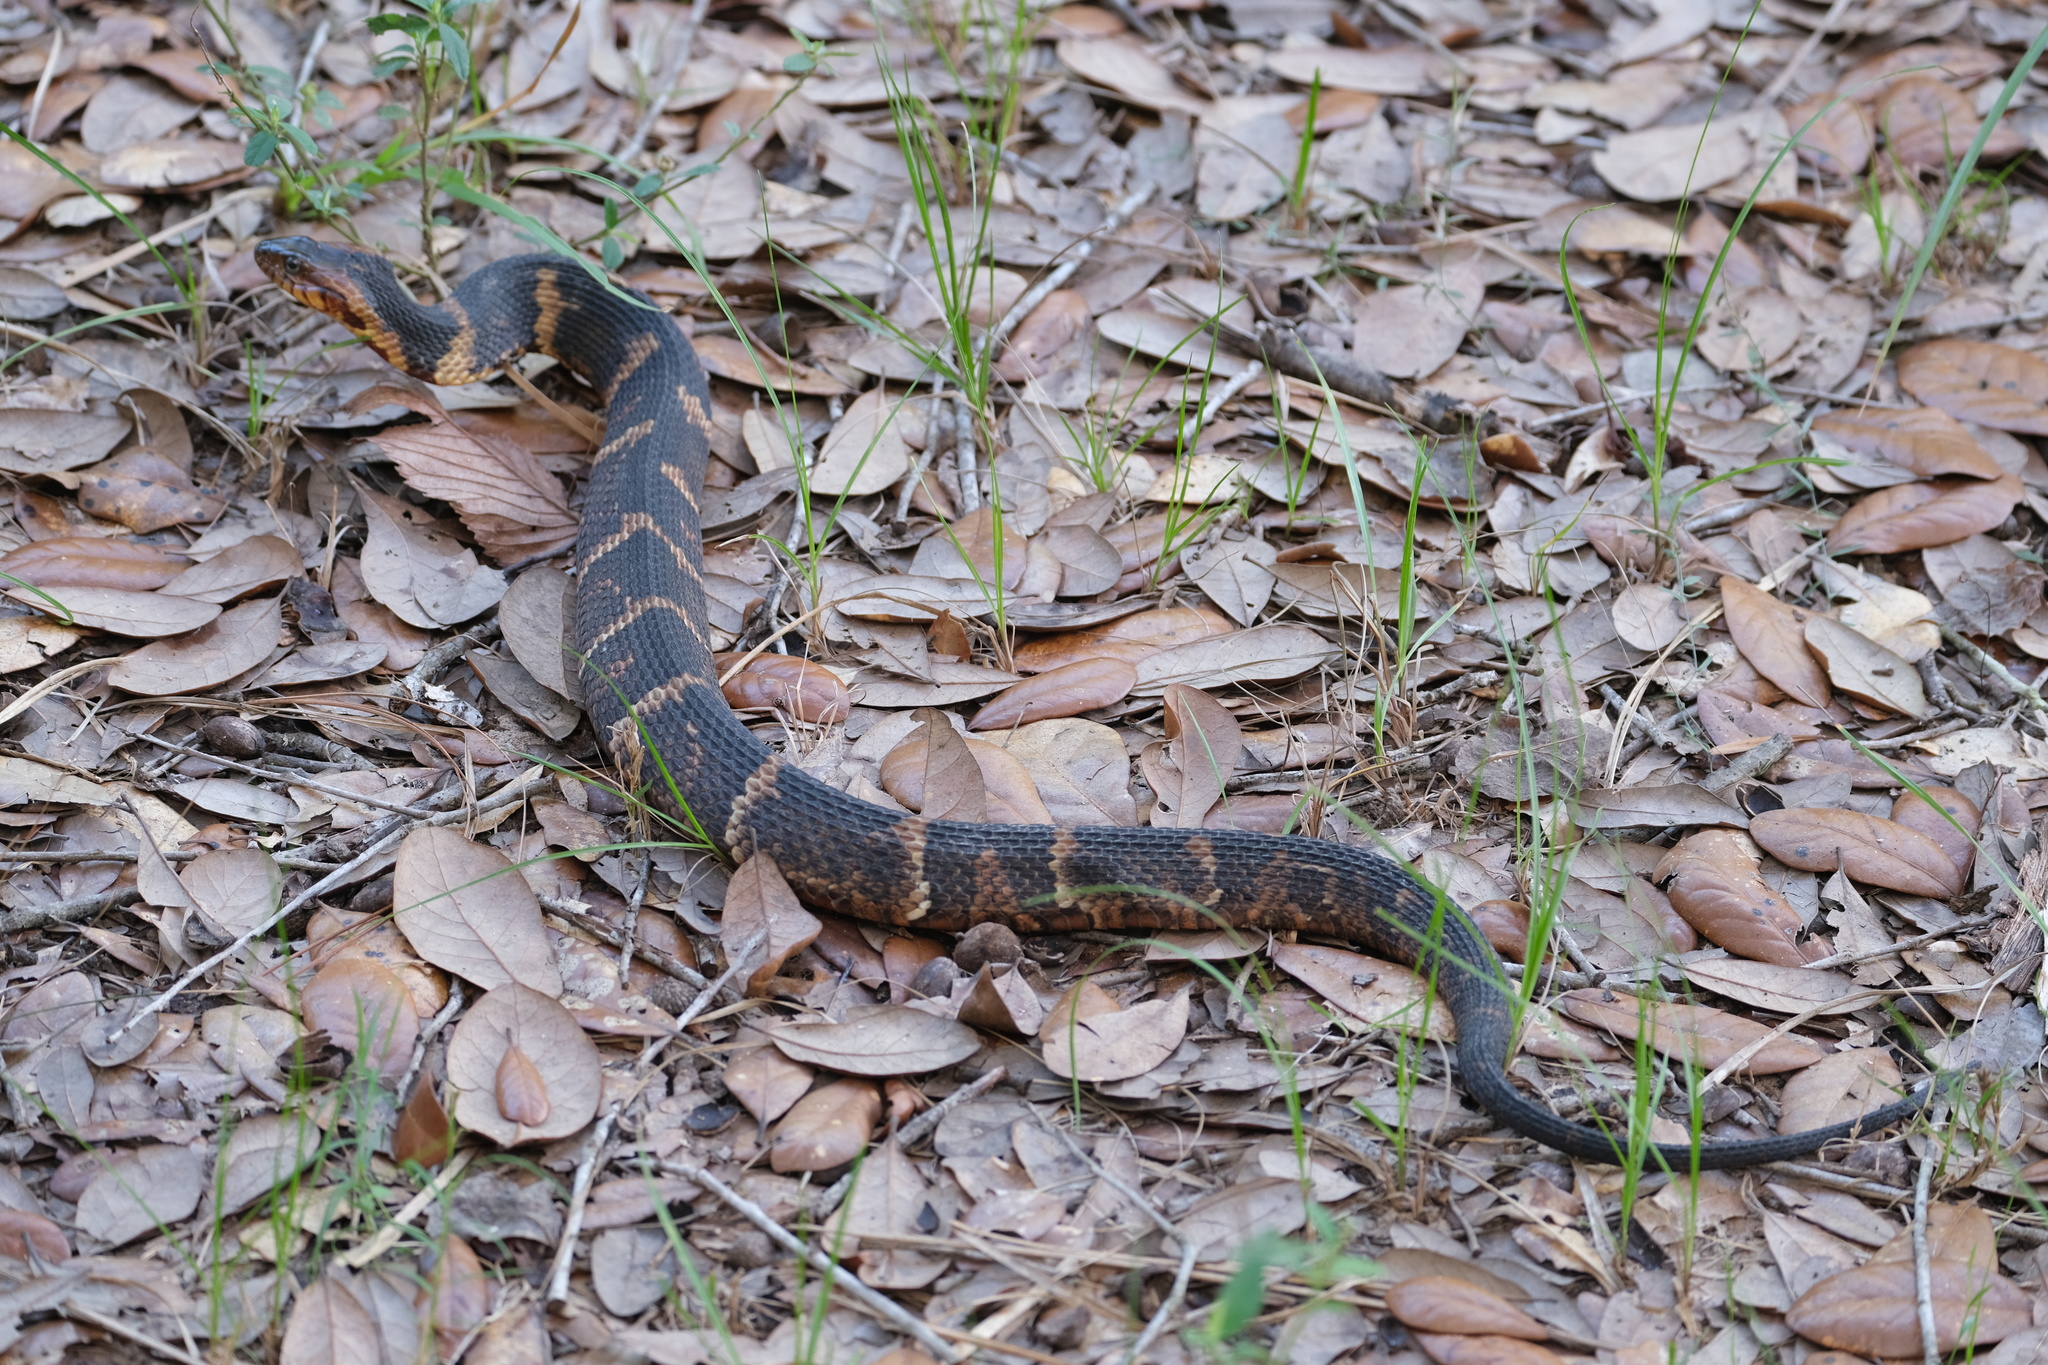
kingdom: Animalia
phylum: Chordata
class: Squamata
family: Colubridae
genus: Nerodia
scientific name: Nerodia fasciata
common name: Southern water snake
